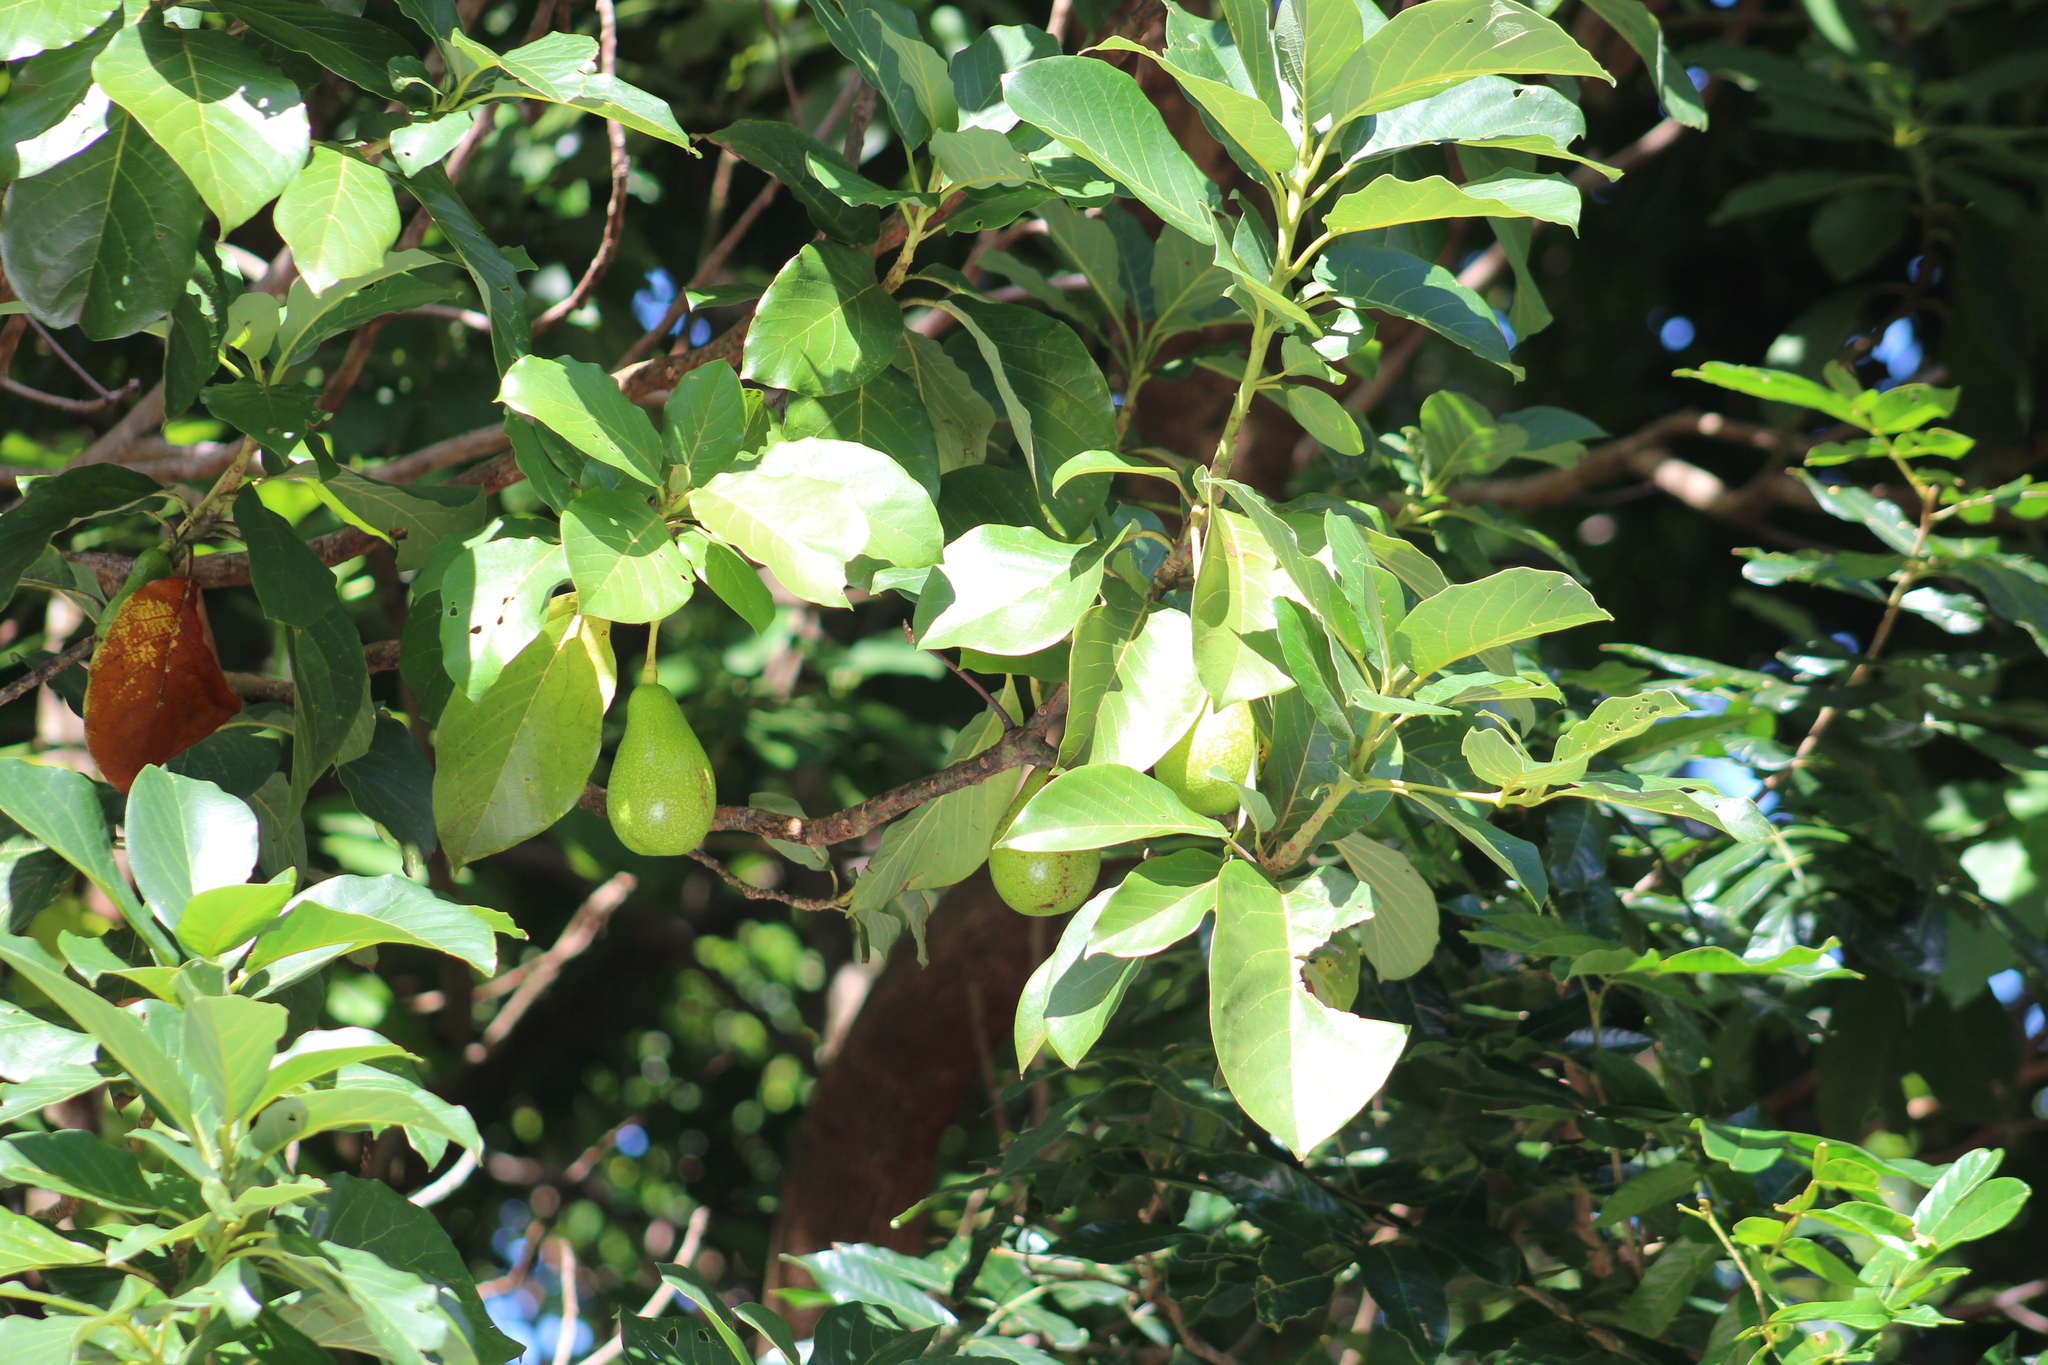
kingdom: Plantae
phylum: Tracheophyta
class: Magnoliopsida
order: Laurales
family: Lauraceae
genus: Persea
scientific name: Persea americana
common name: Avocado
